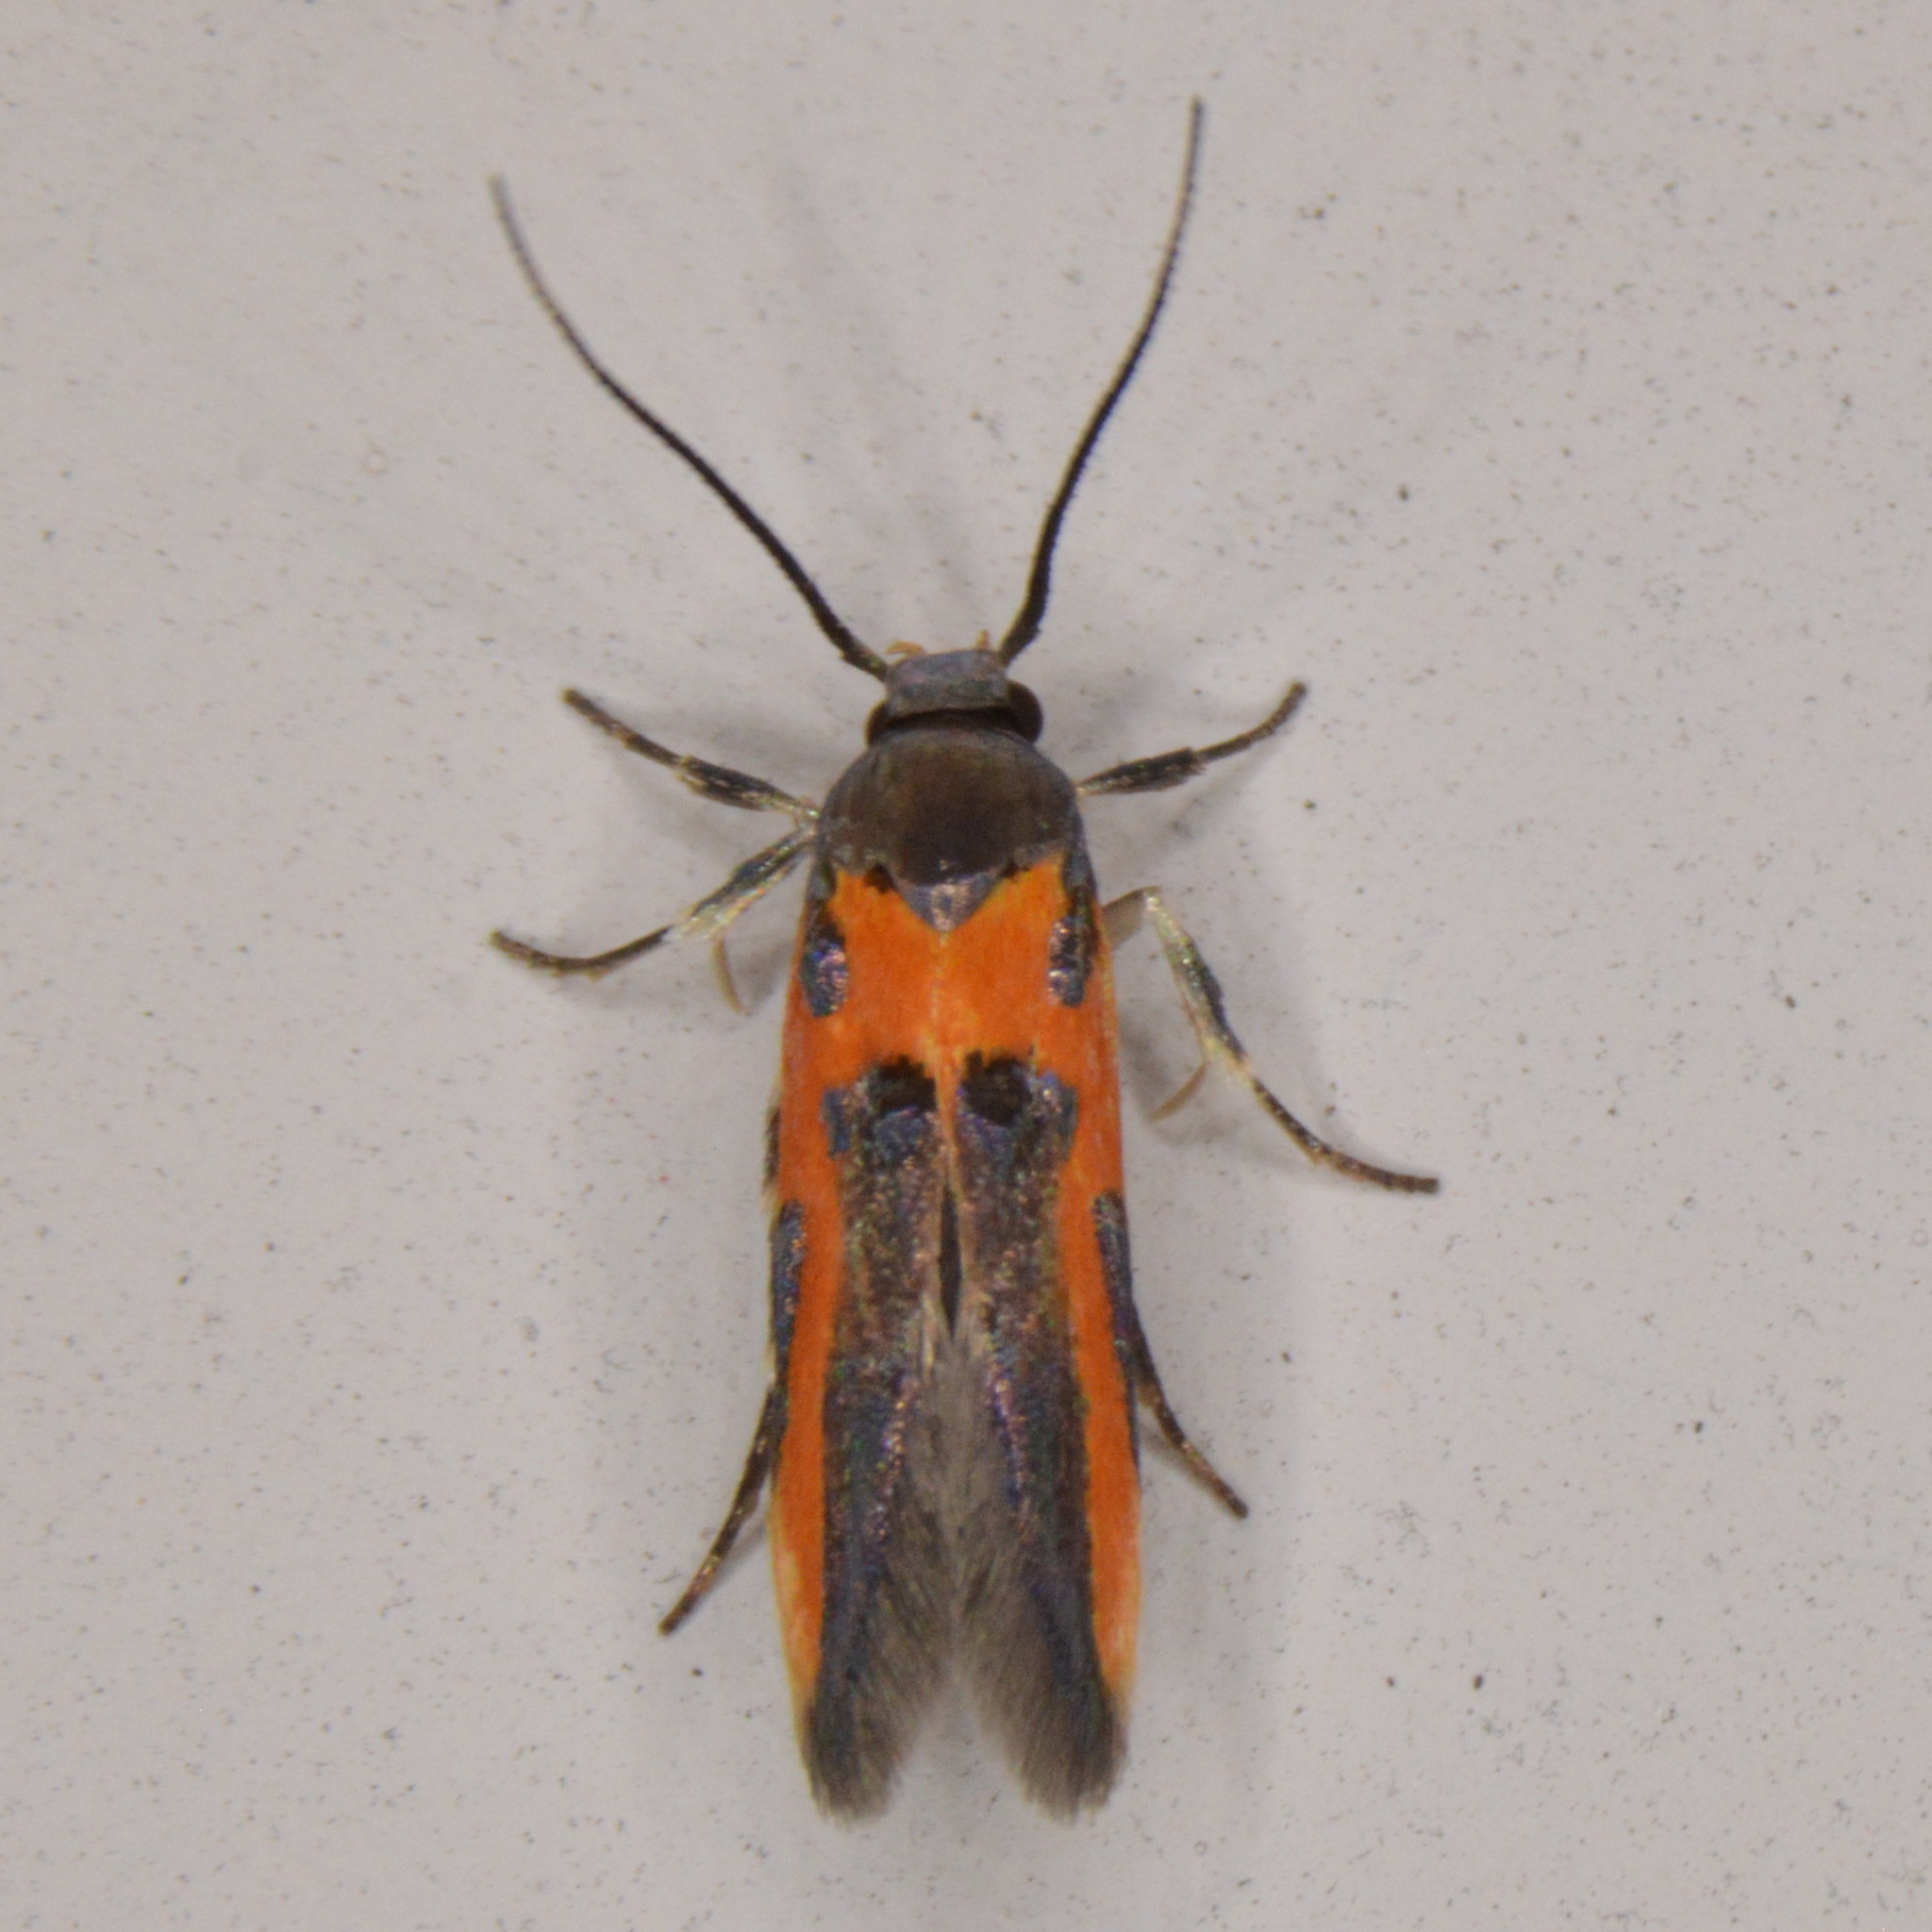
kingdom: Animalia
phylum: Arthropoda
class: Insecta
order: Lepidoptera
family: Cosmopterigidae
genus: Euclemensia
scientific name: Euclemensia bassettella
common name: Kermes scale moth
